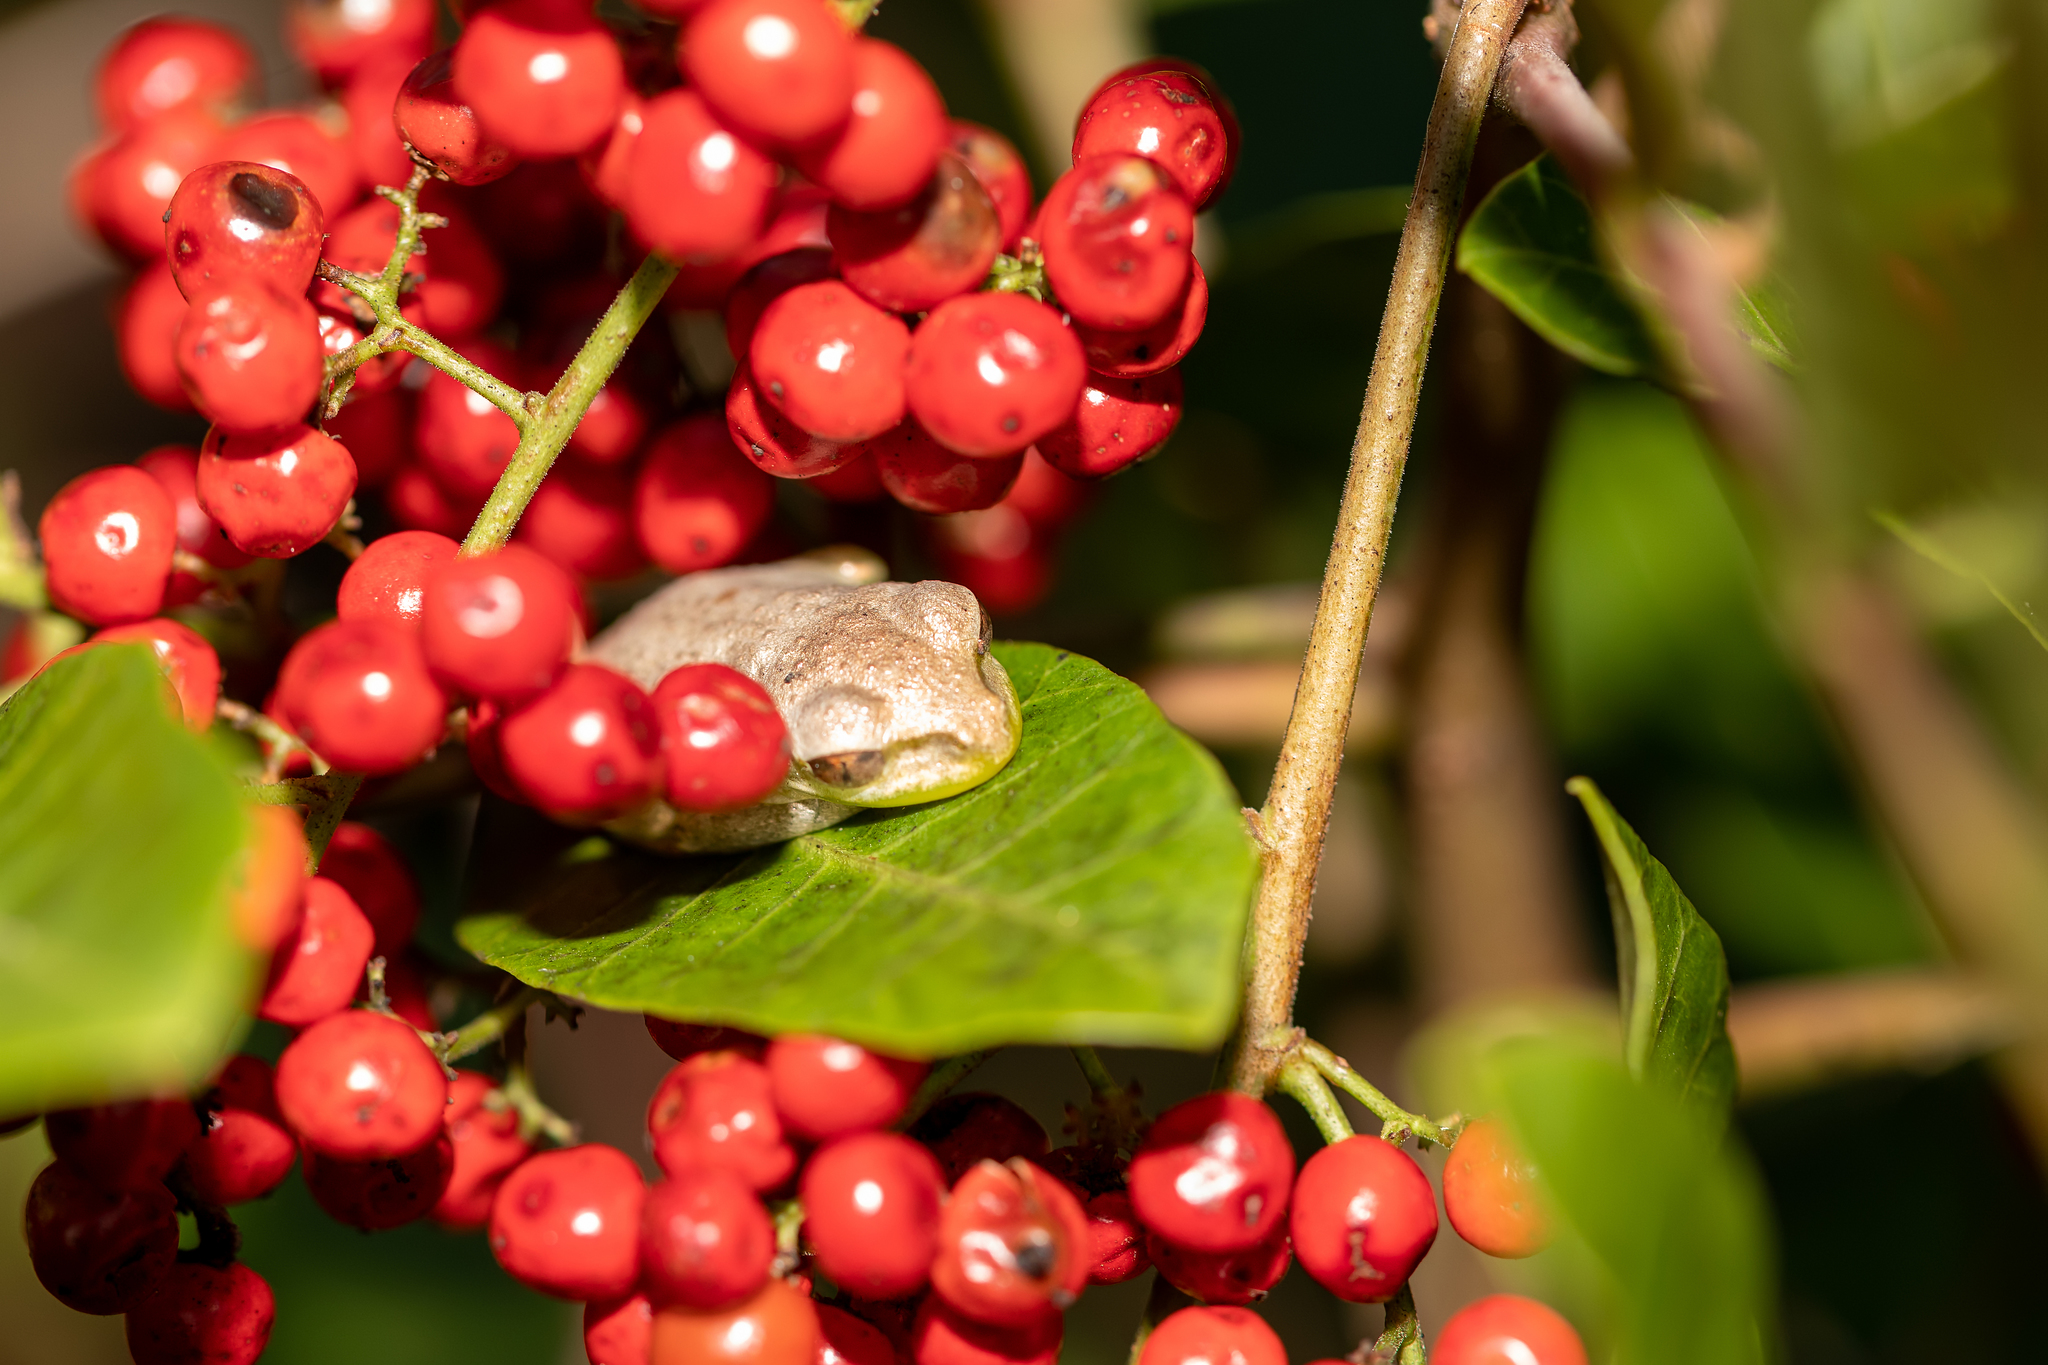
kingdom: Animalia
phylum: Chordata
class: Amphibia
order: Anura
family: Hylidae
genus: Osteopilus
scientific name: Osteopilus septentrionalis
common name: Cuban treefrog
